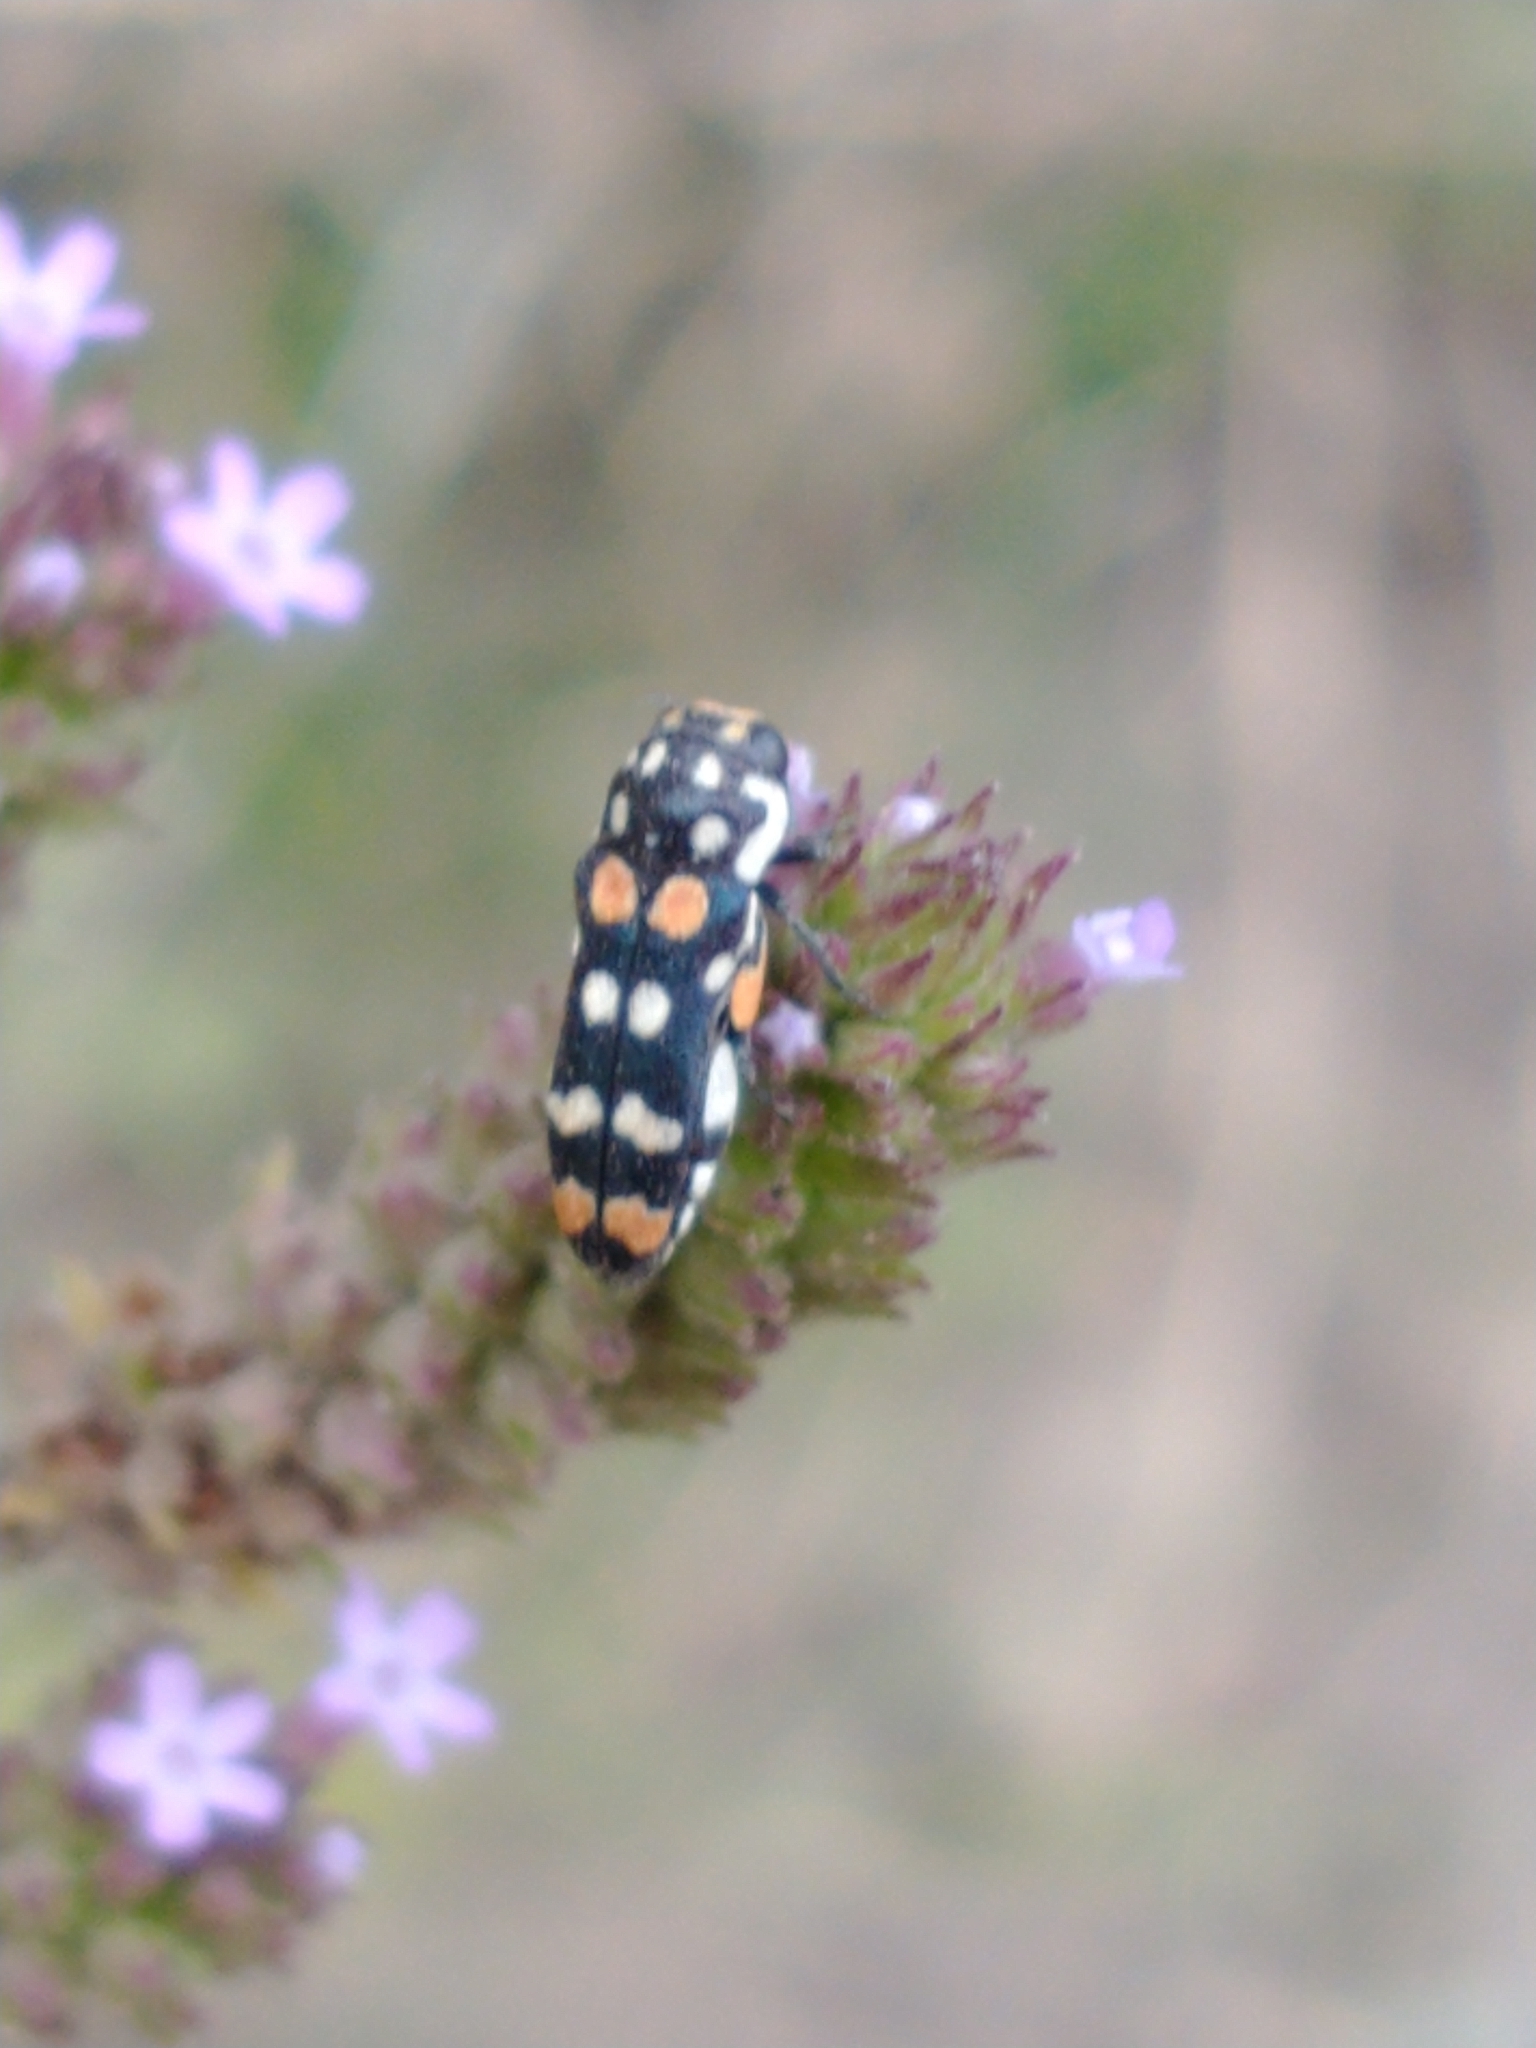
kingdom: Animalia
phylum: Arthropoda
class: Insecta
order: Coleoptera
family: Buprestidae
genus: Bergidora
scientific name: Bergidora picturella
